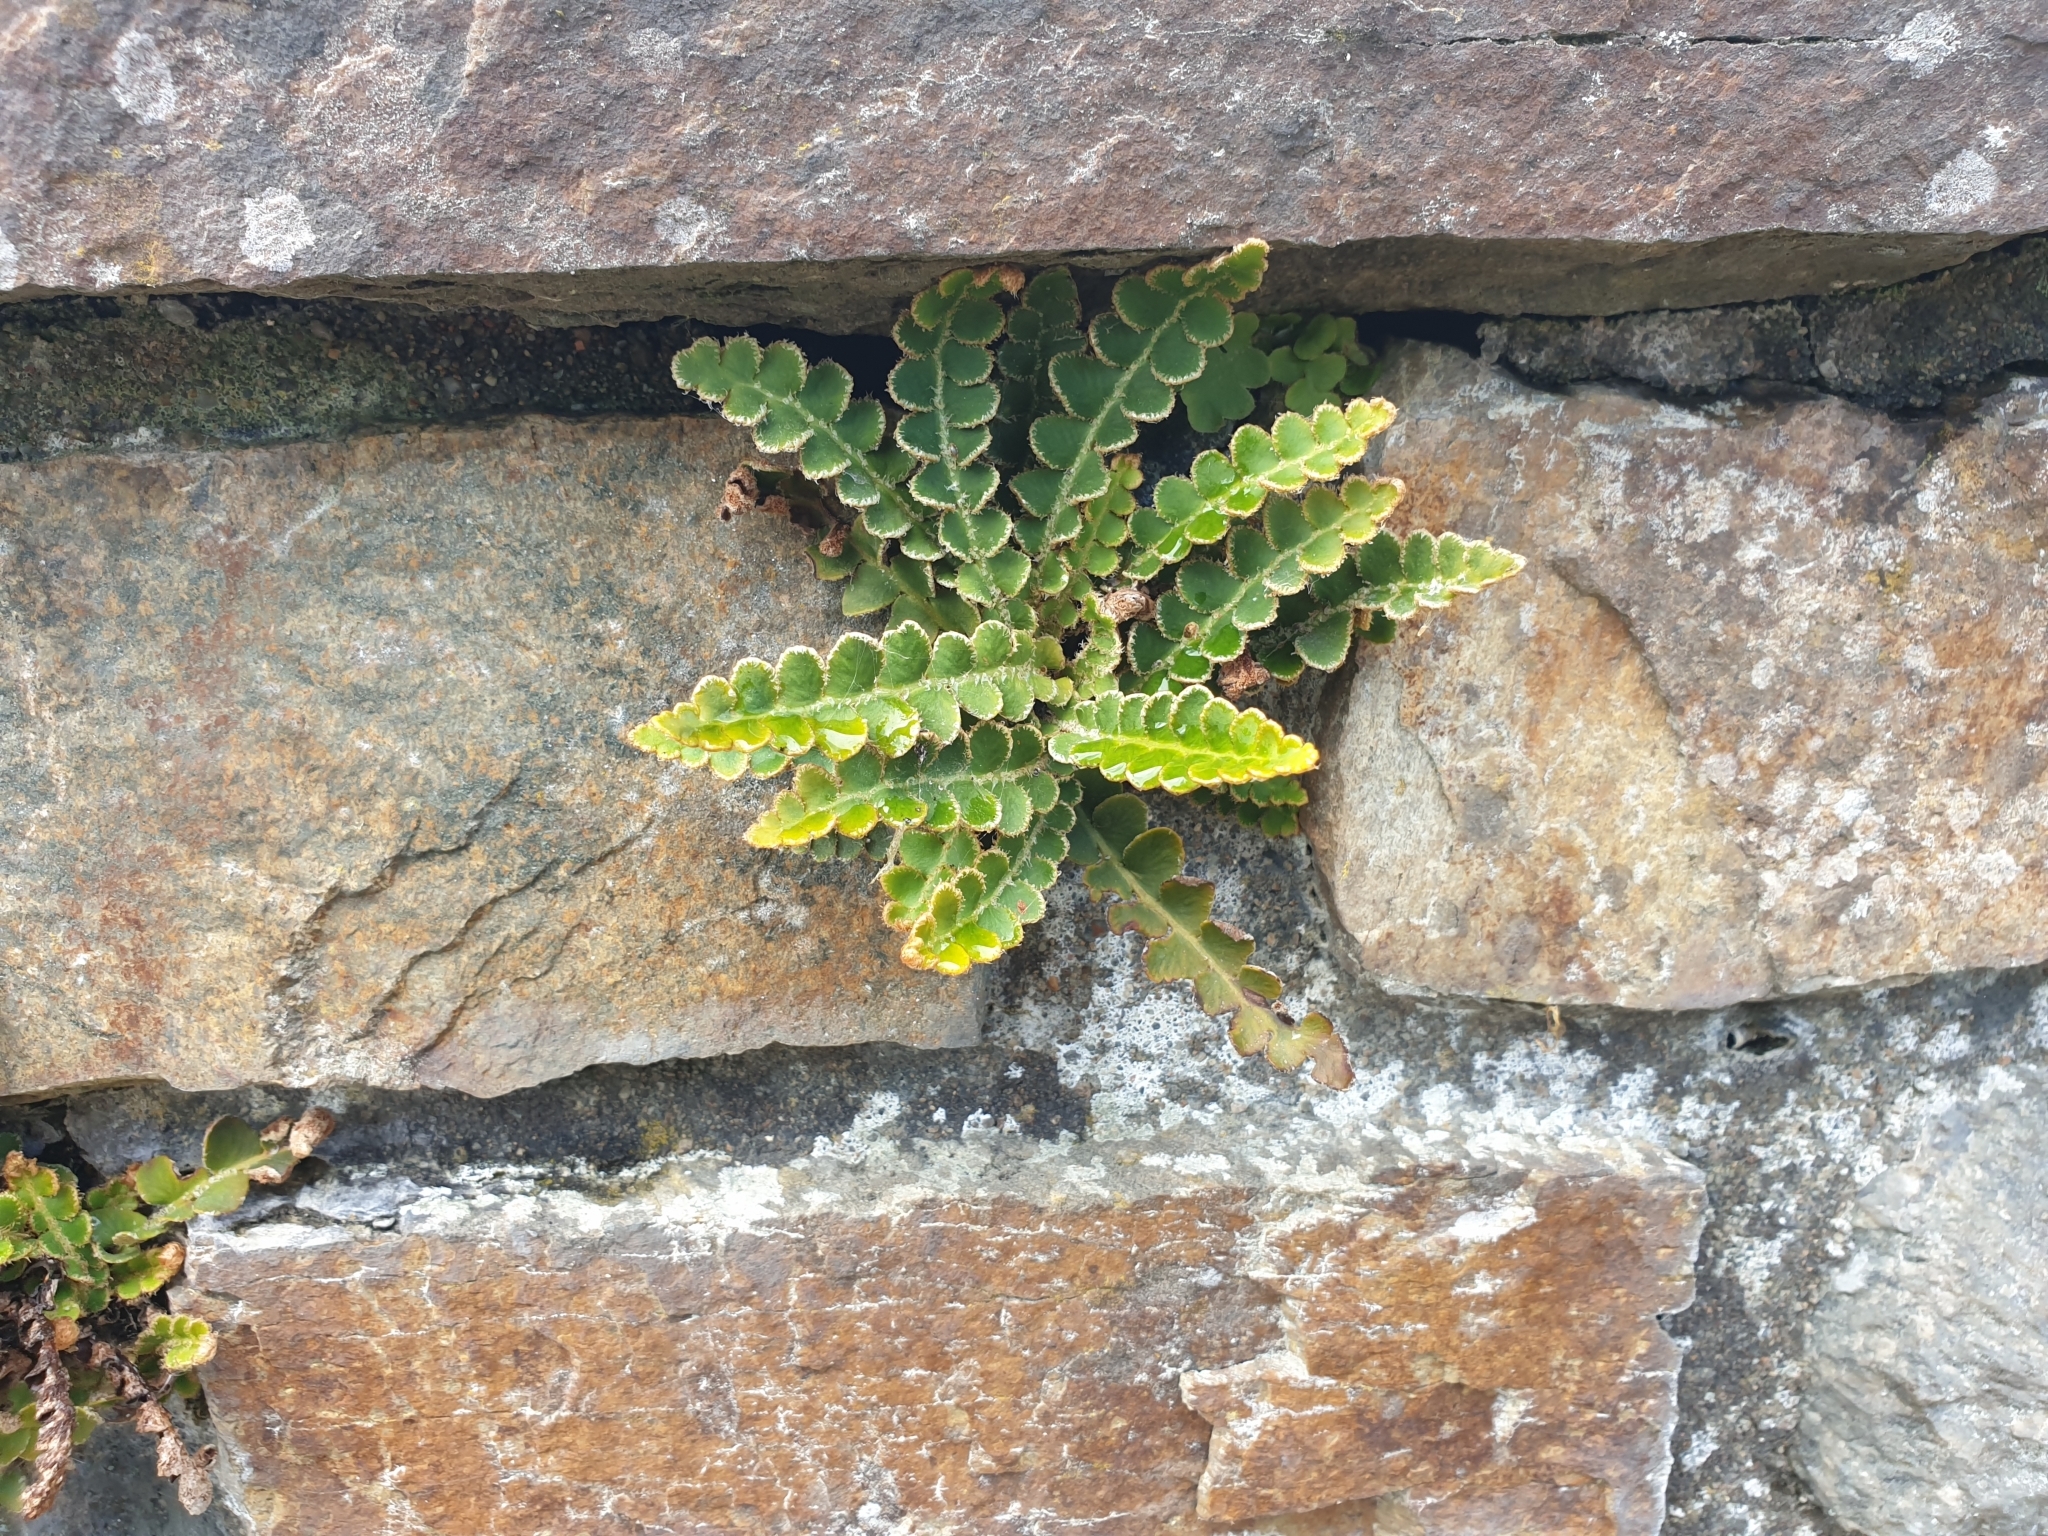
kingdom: Plantae
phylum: Tracheophyta
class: Polypodiopsida
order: Polypodiales
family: Aspleniaceae
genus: Asplenium
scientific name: Asplenium ceterach
